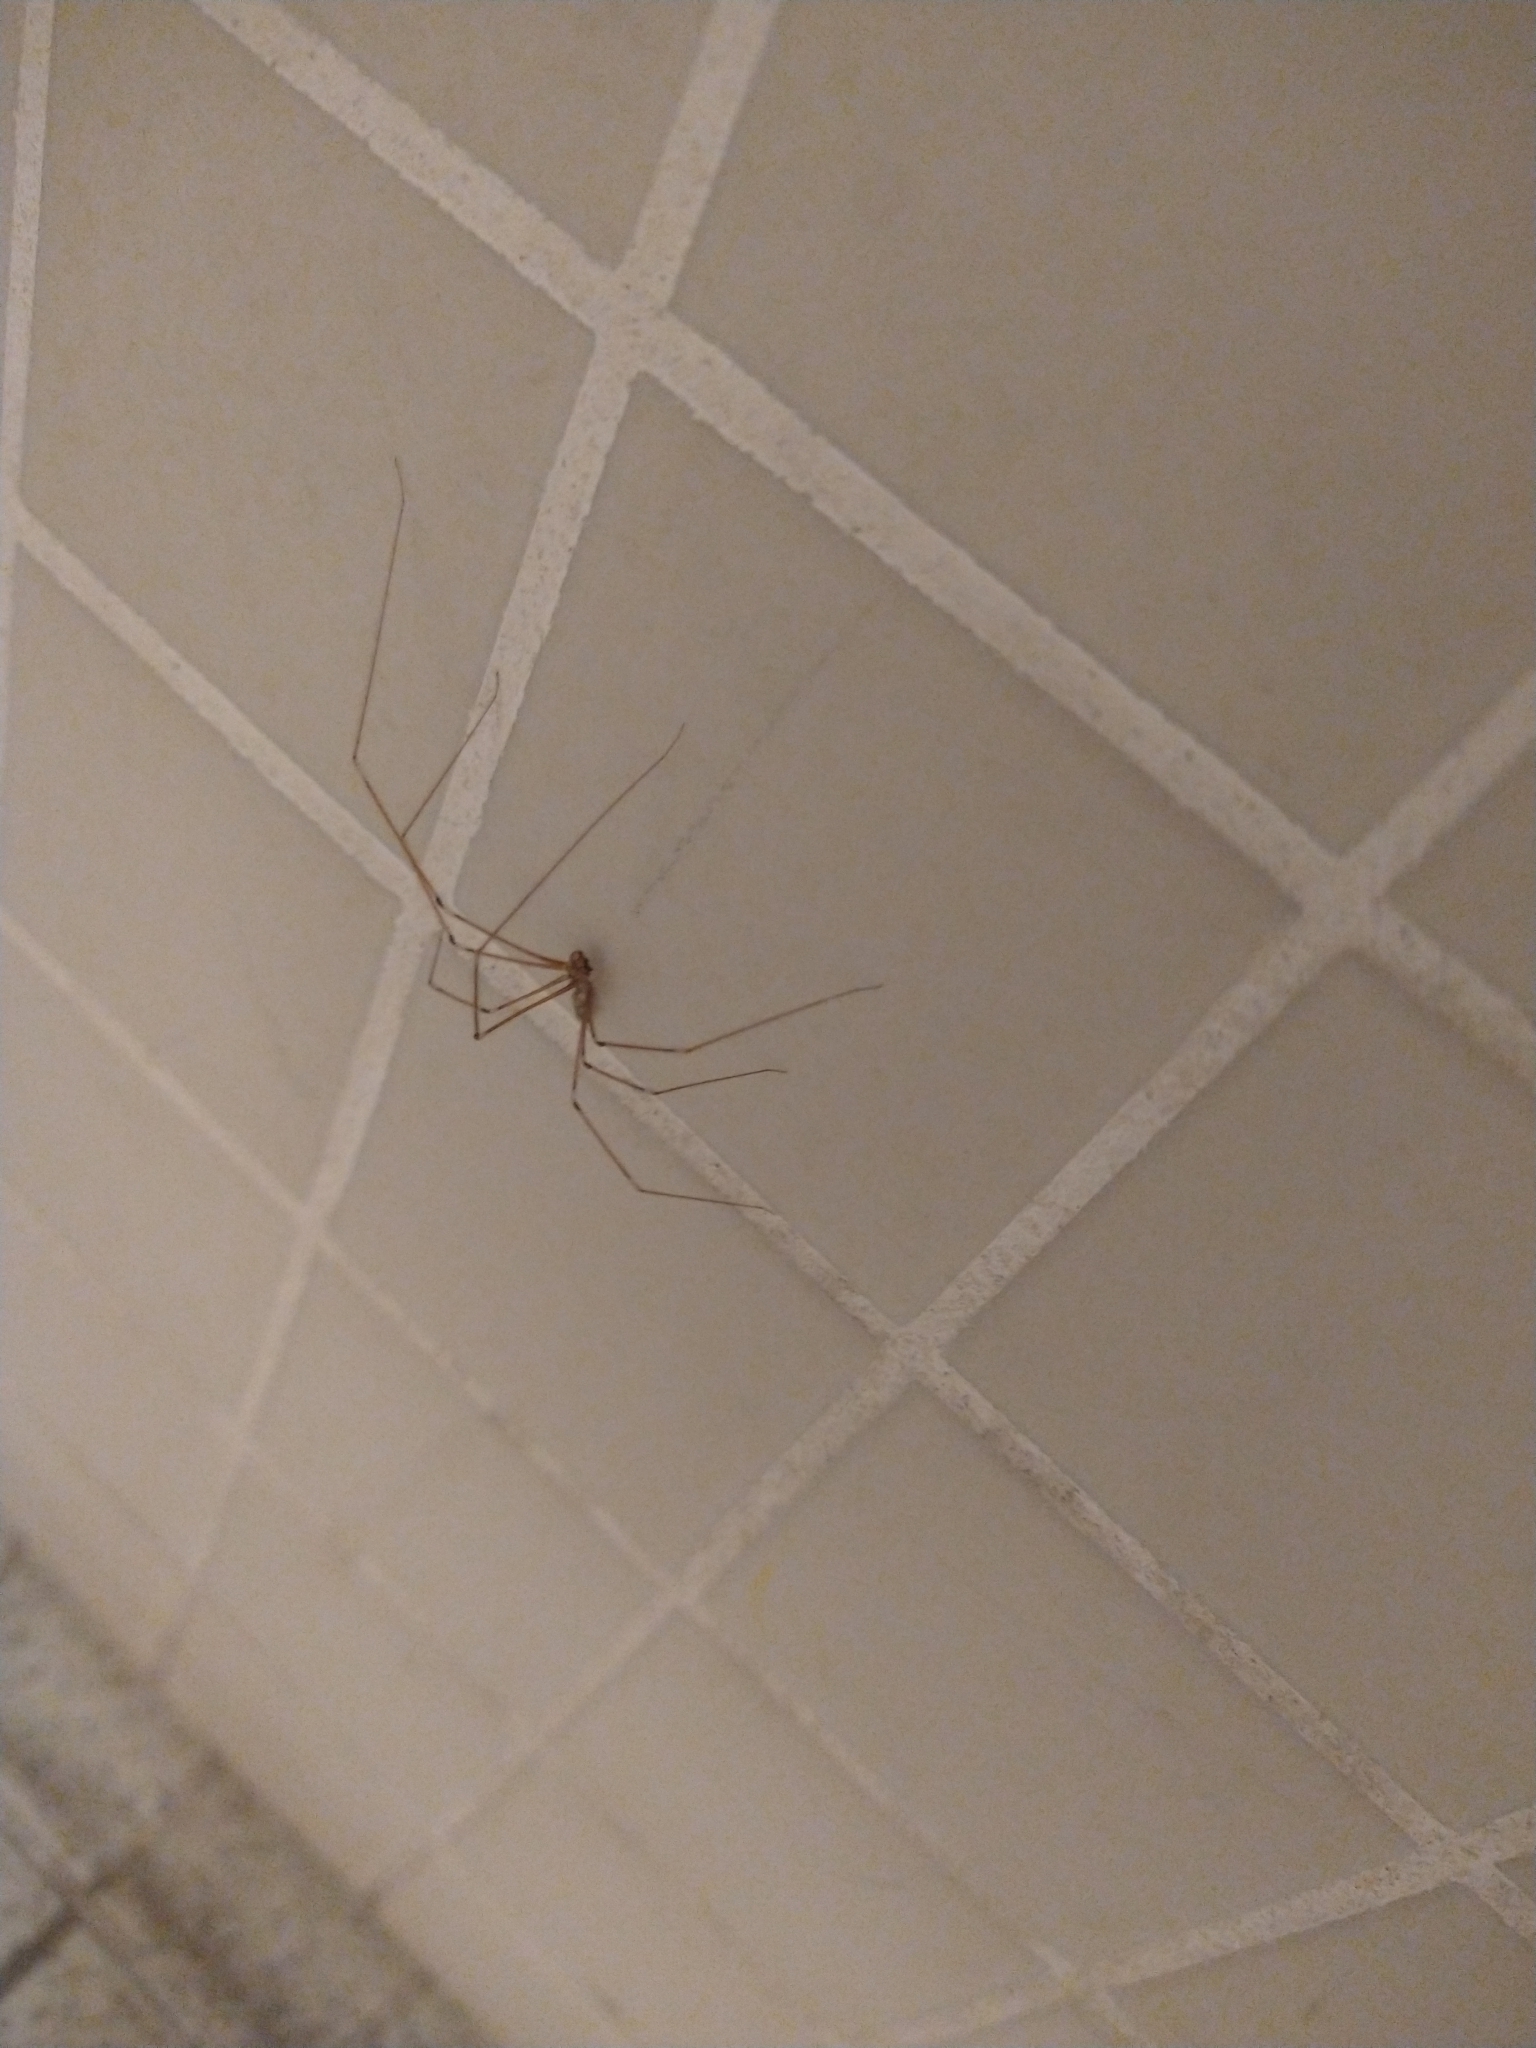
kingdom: Animalia
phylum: Arthropoda
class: Arachnida
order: Araneae
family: Pholcidae
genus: Pholcus
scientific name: Pholcus phalangioides
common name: Longbodied cellar spider
